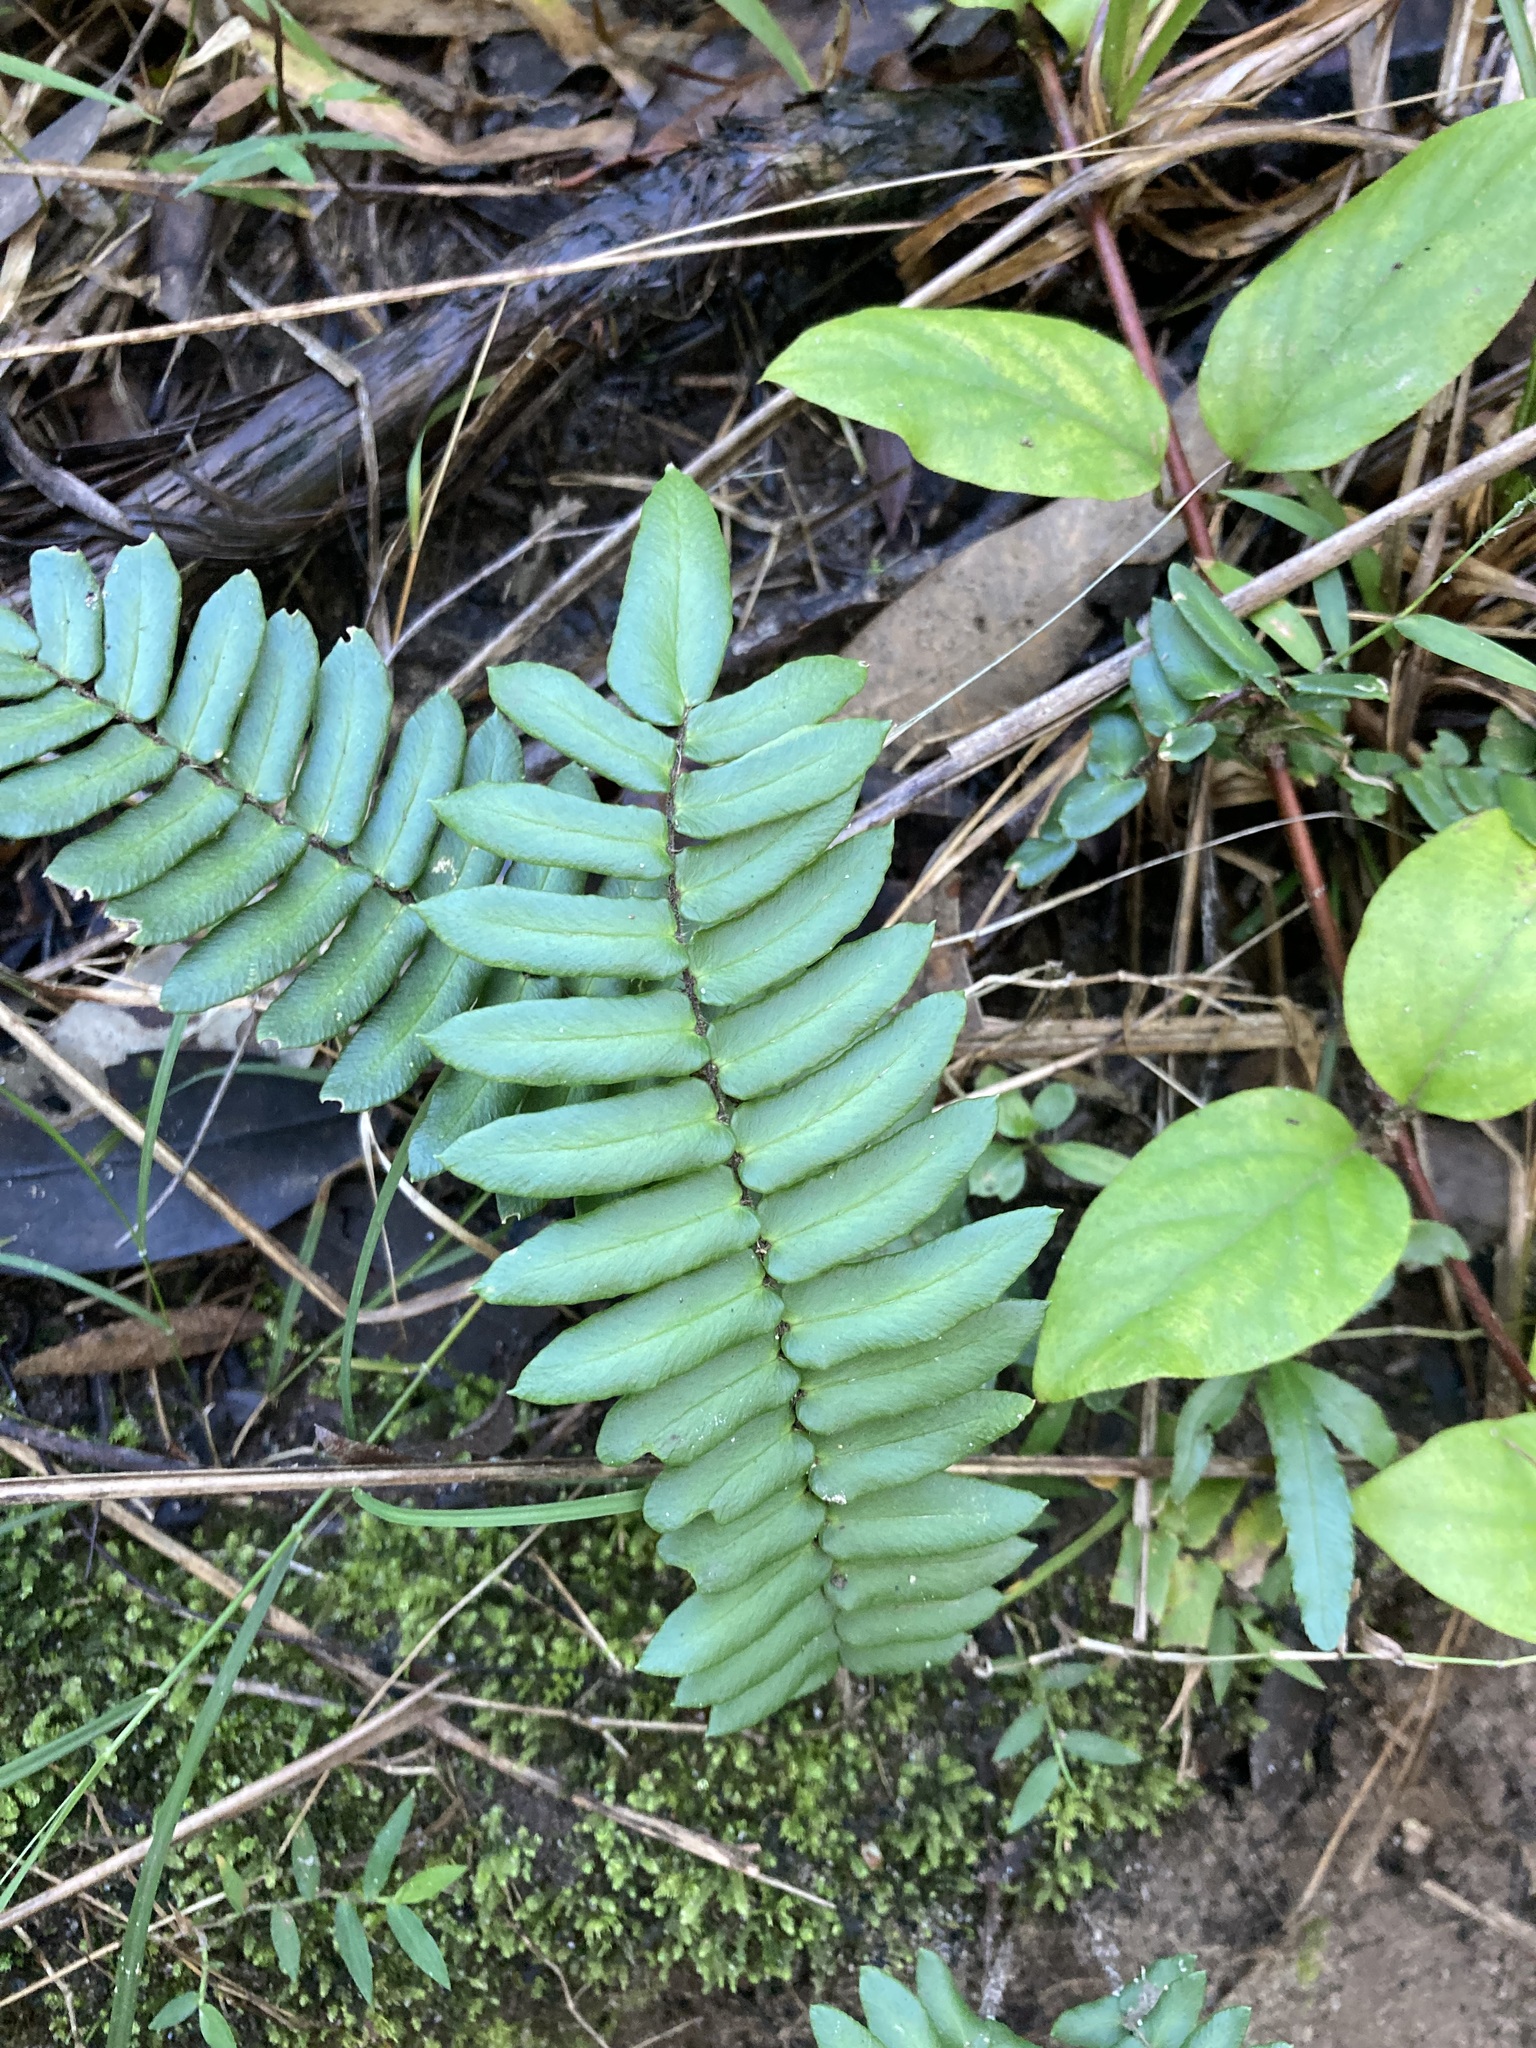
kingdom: Plantae
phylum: Tracheophyta
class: Polypodiopsida
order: Polypodiales
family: Pteridaceae
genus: Pellaea
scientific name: Pellaea falcata
